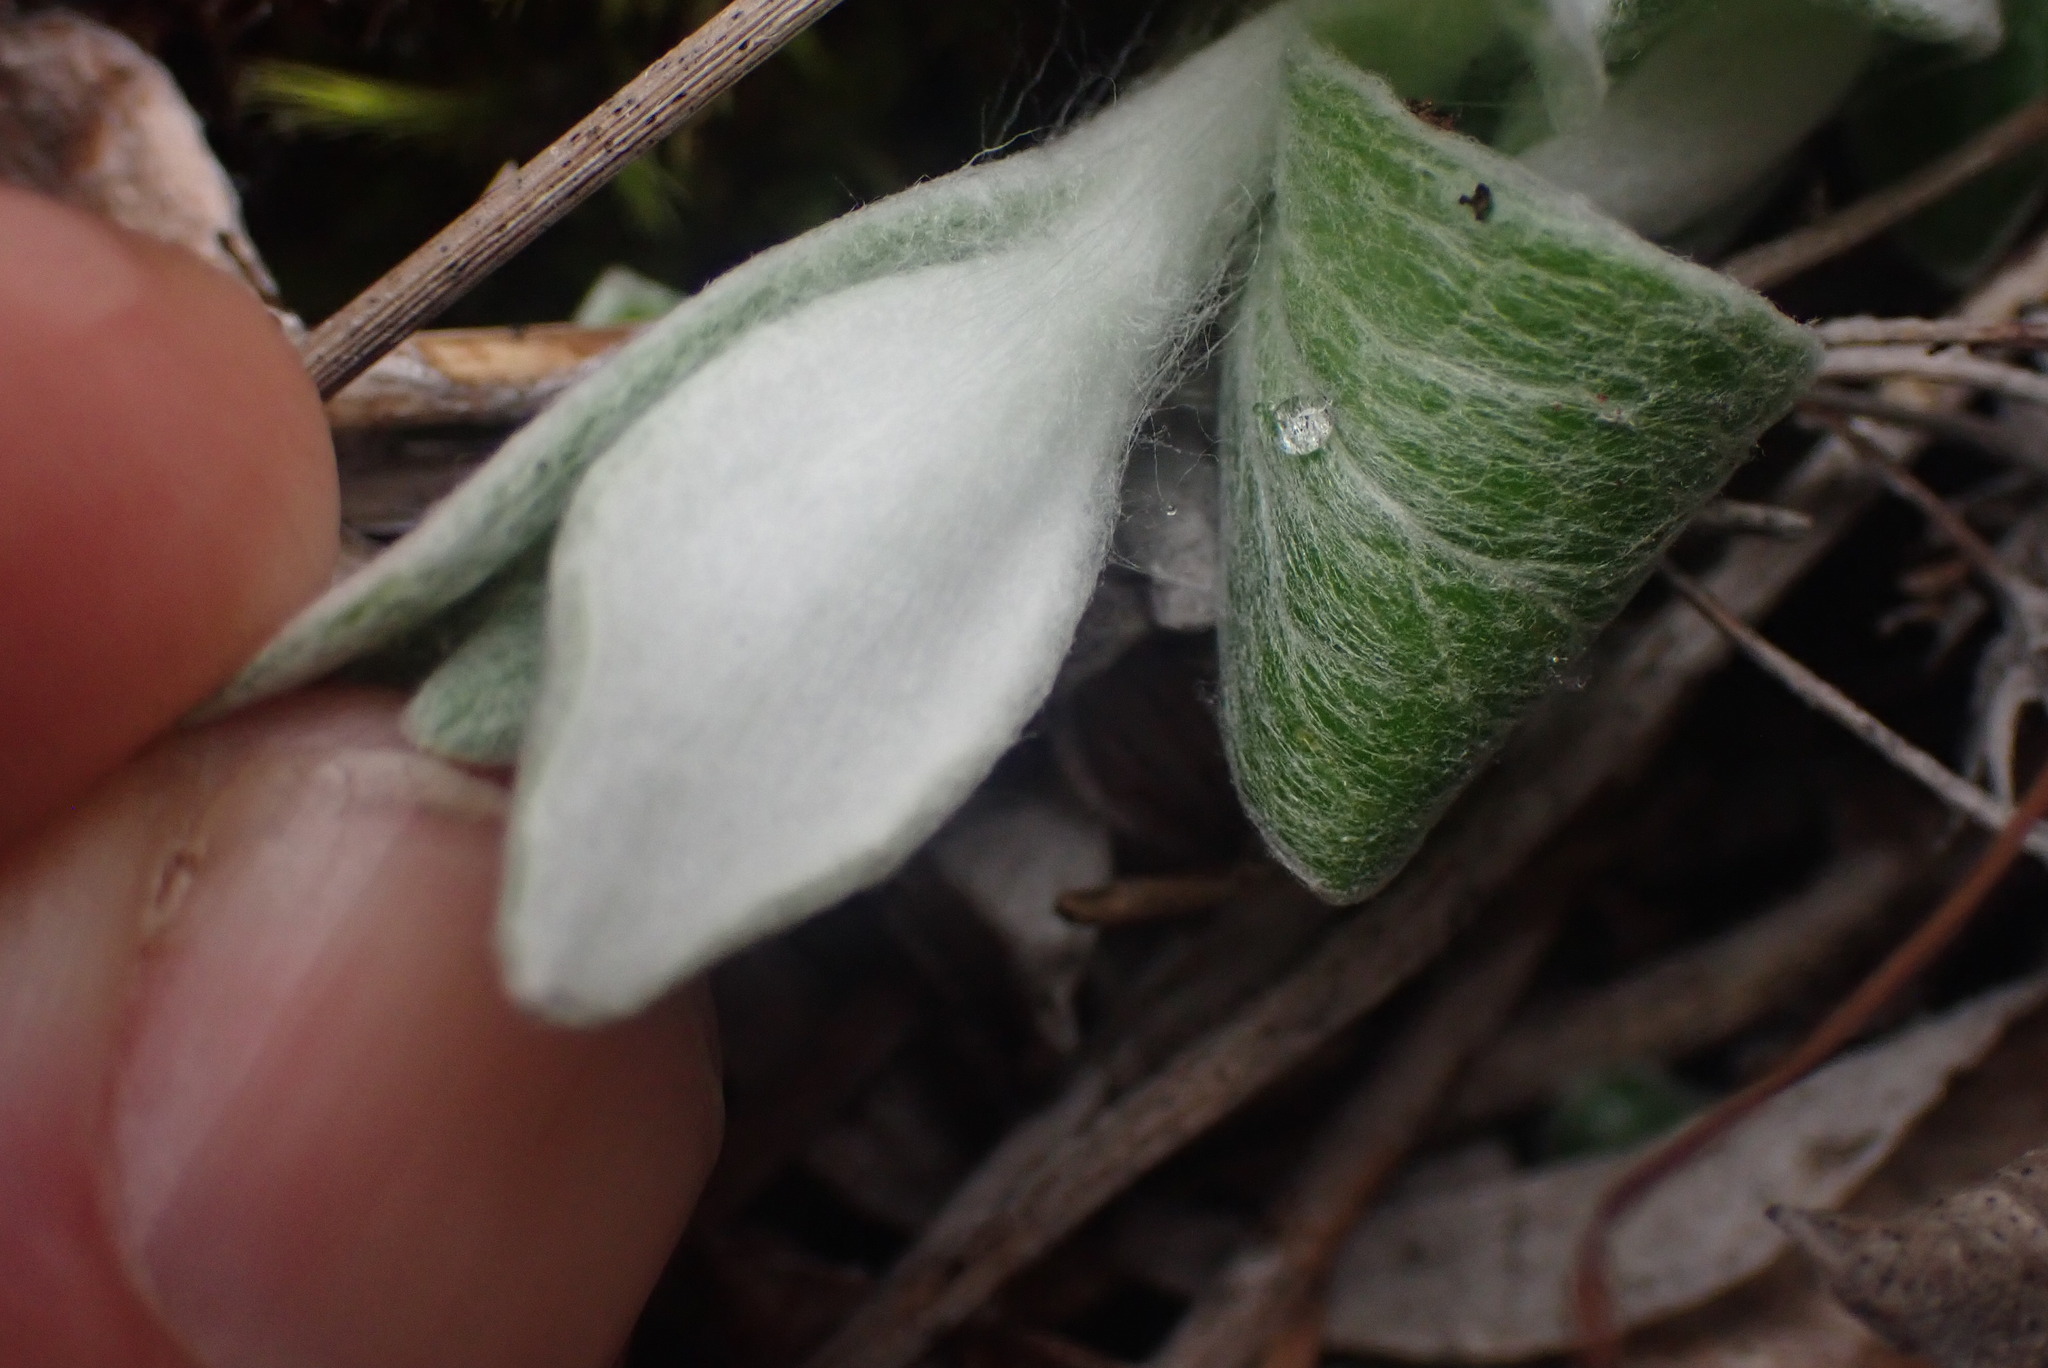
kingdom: Plantae
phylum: Tracheophyta
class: Magnoliopsida
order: Asterales
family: Asteraceae
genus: Luina
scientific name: Luina hypoleuca
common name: Little-leaved luina
